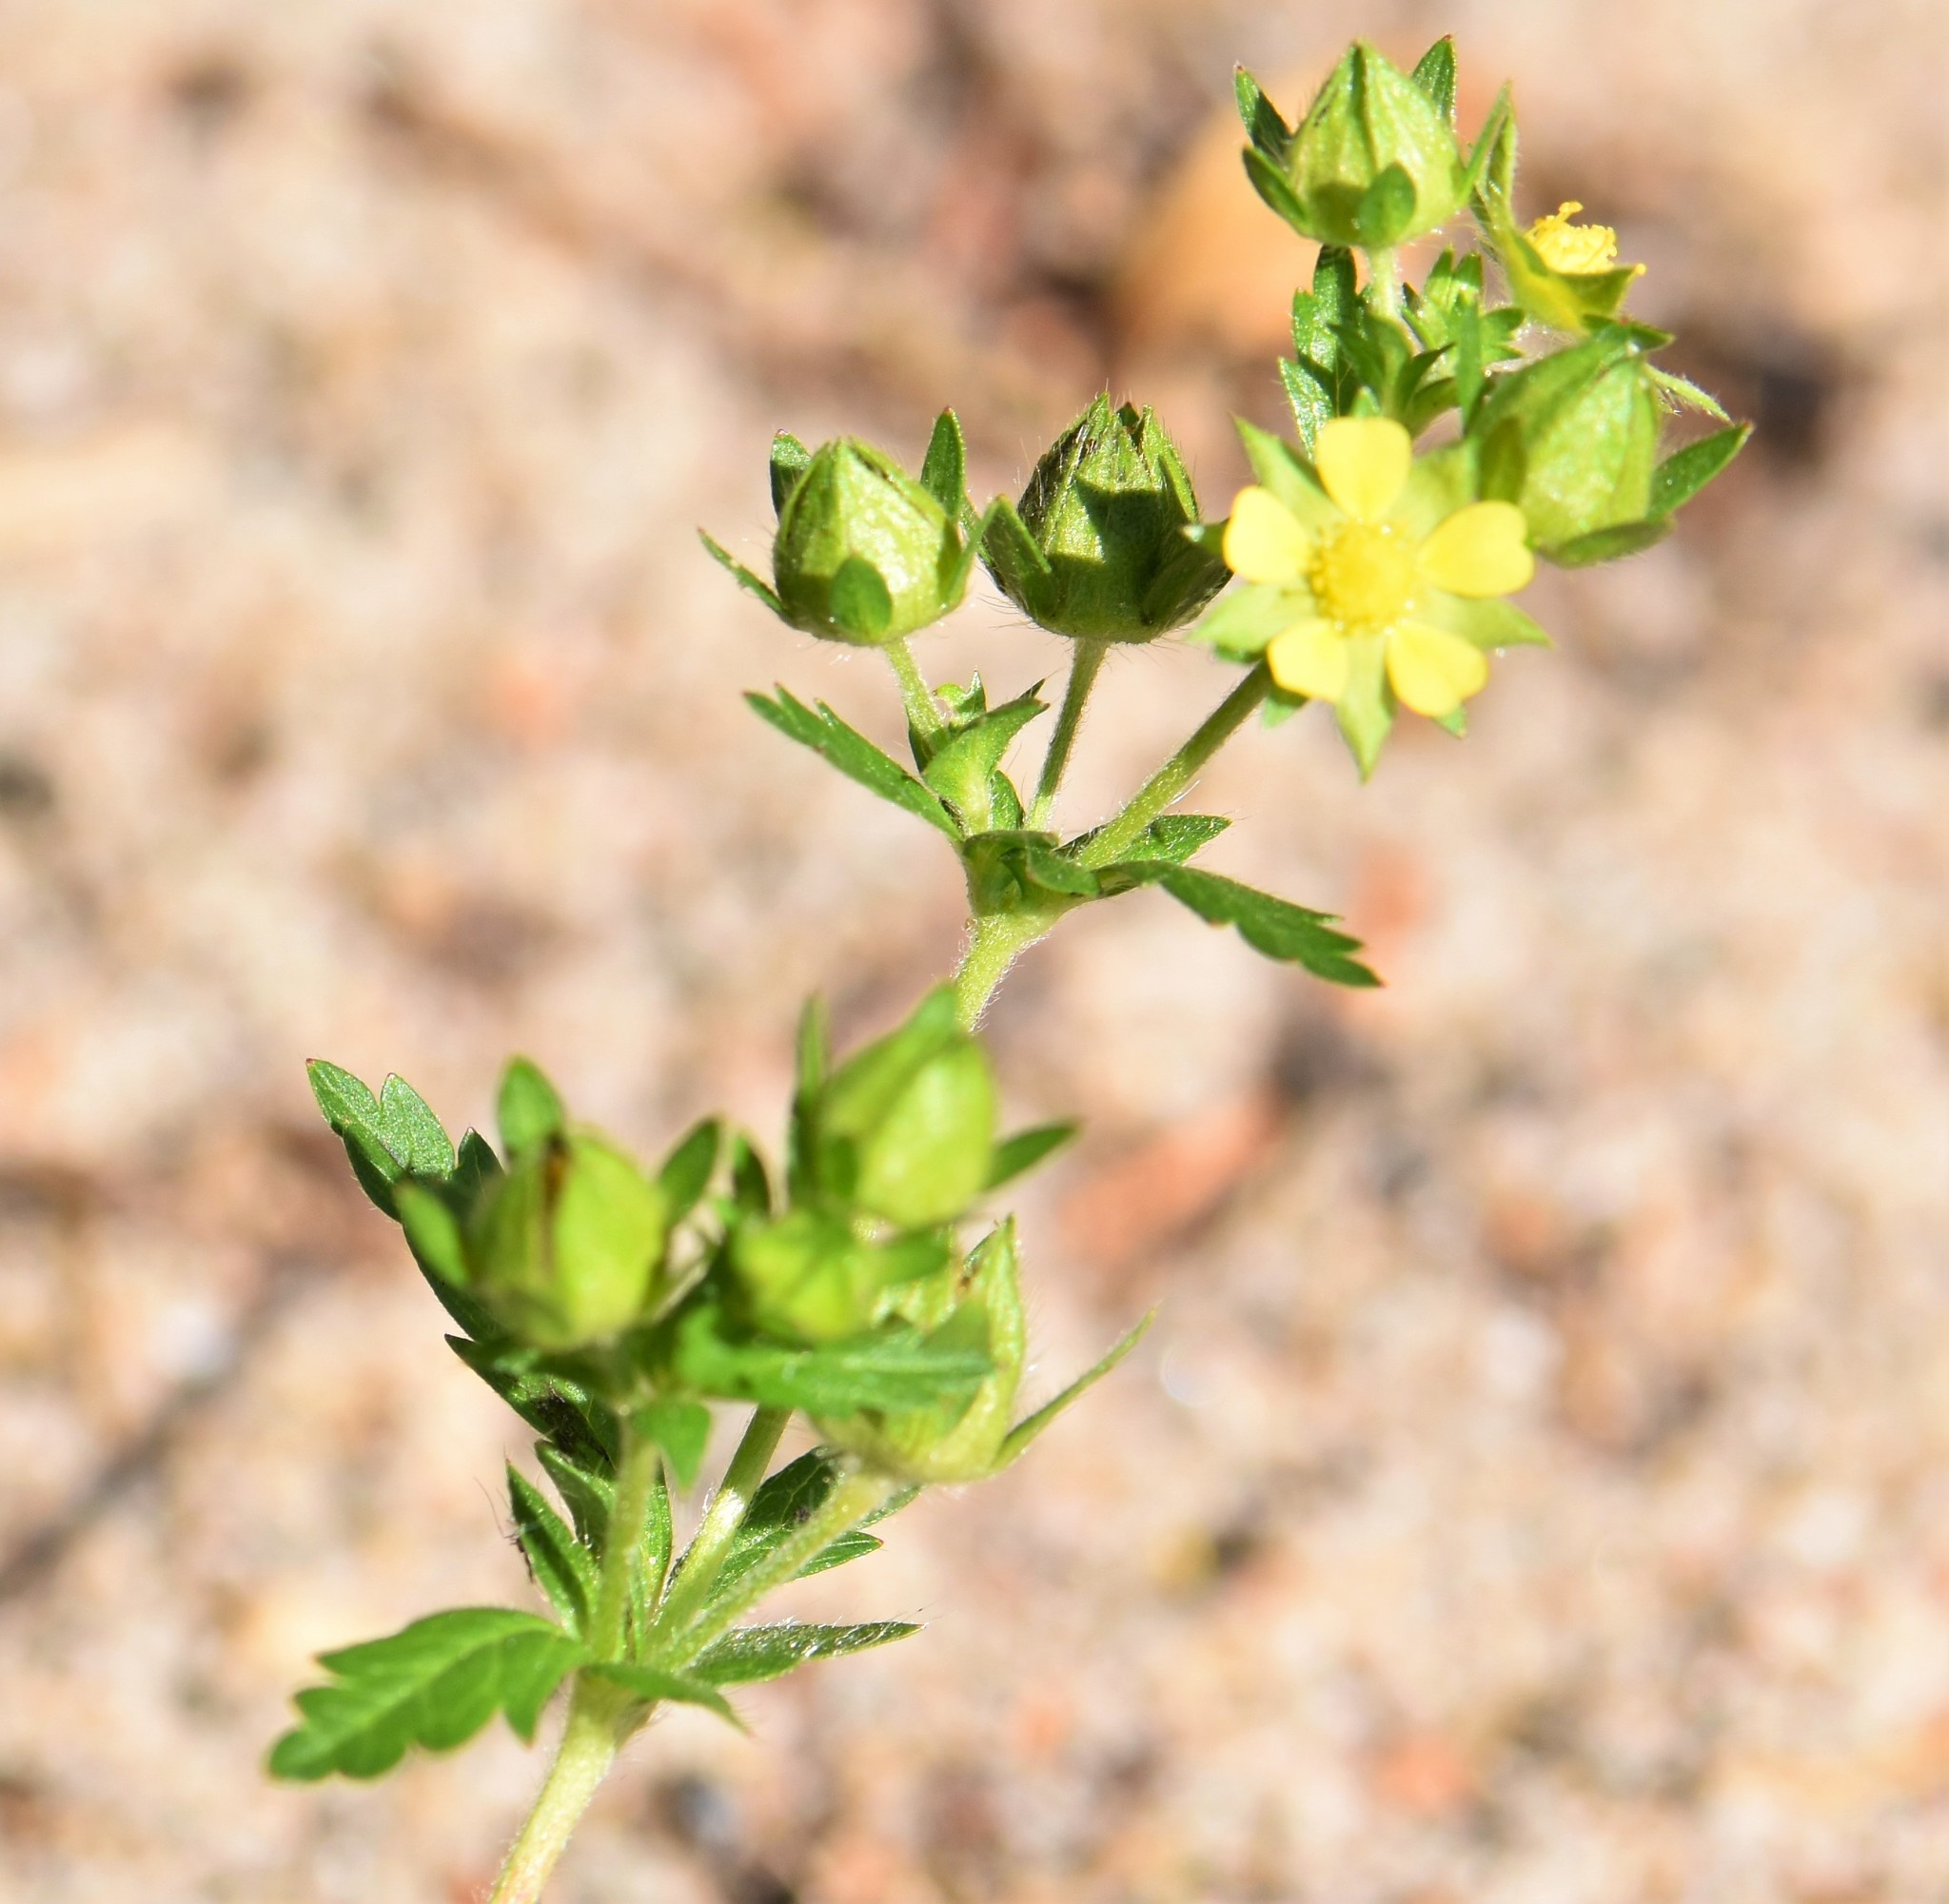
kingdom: Plantae
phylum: Tracheophyta
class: Magnoliopsida
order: Rosales
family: Rosaceae
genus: Potentilla
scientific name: Potentilla norvegica
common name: Ternate-leaved cinquefoil
